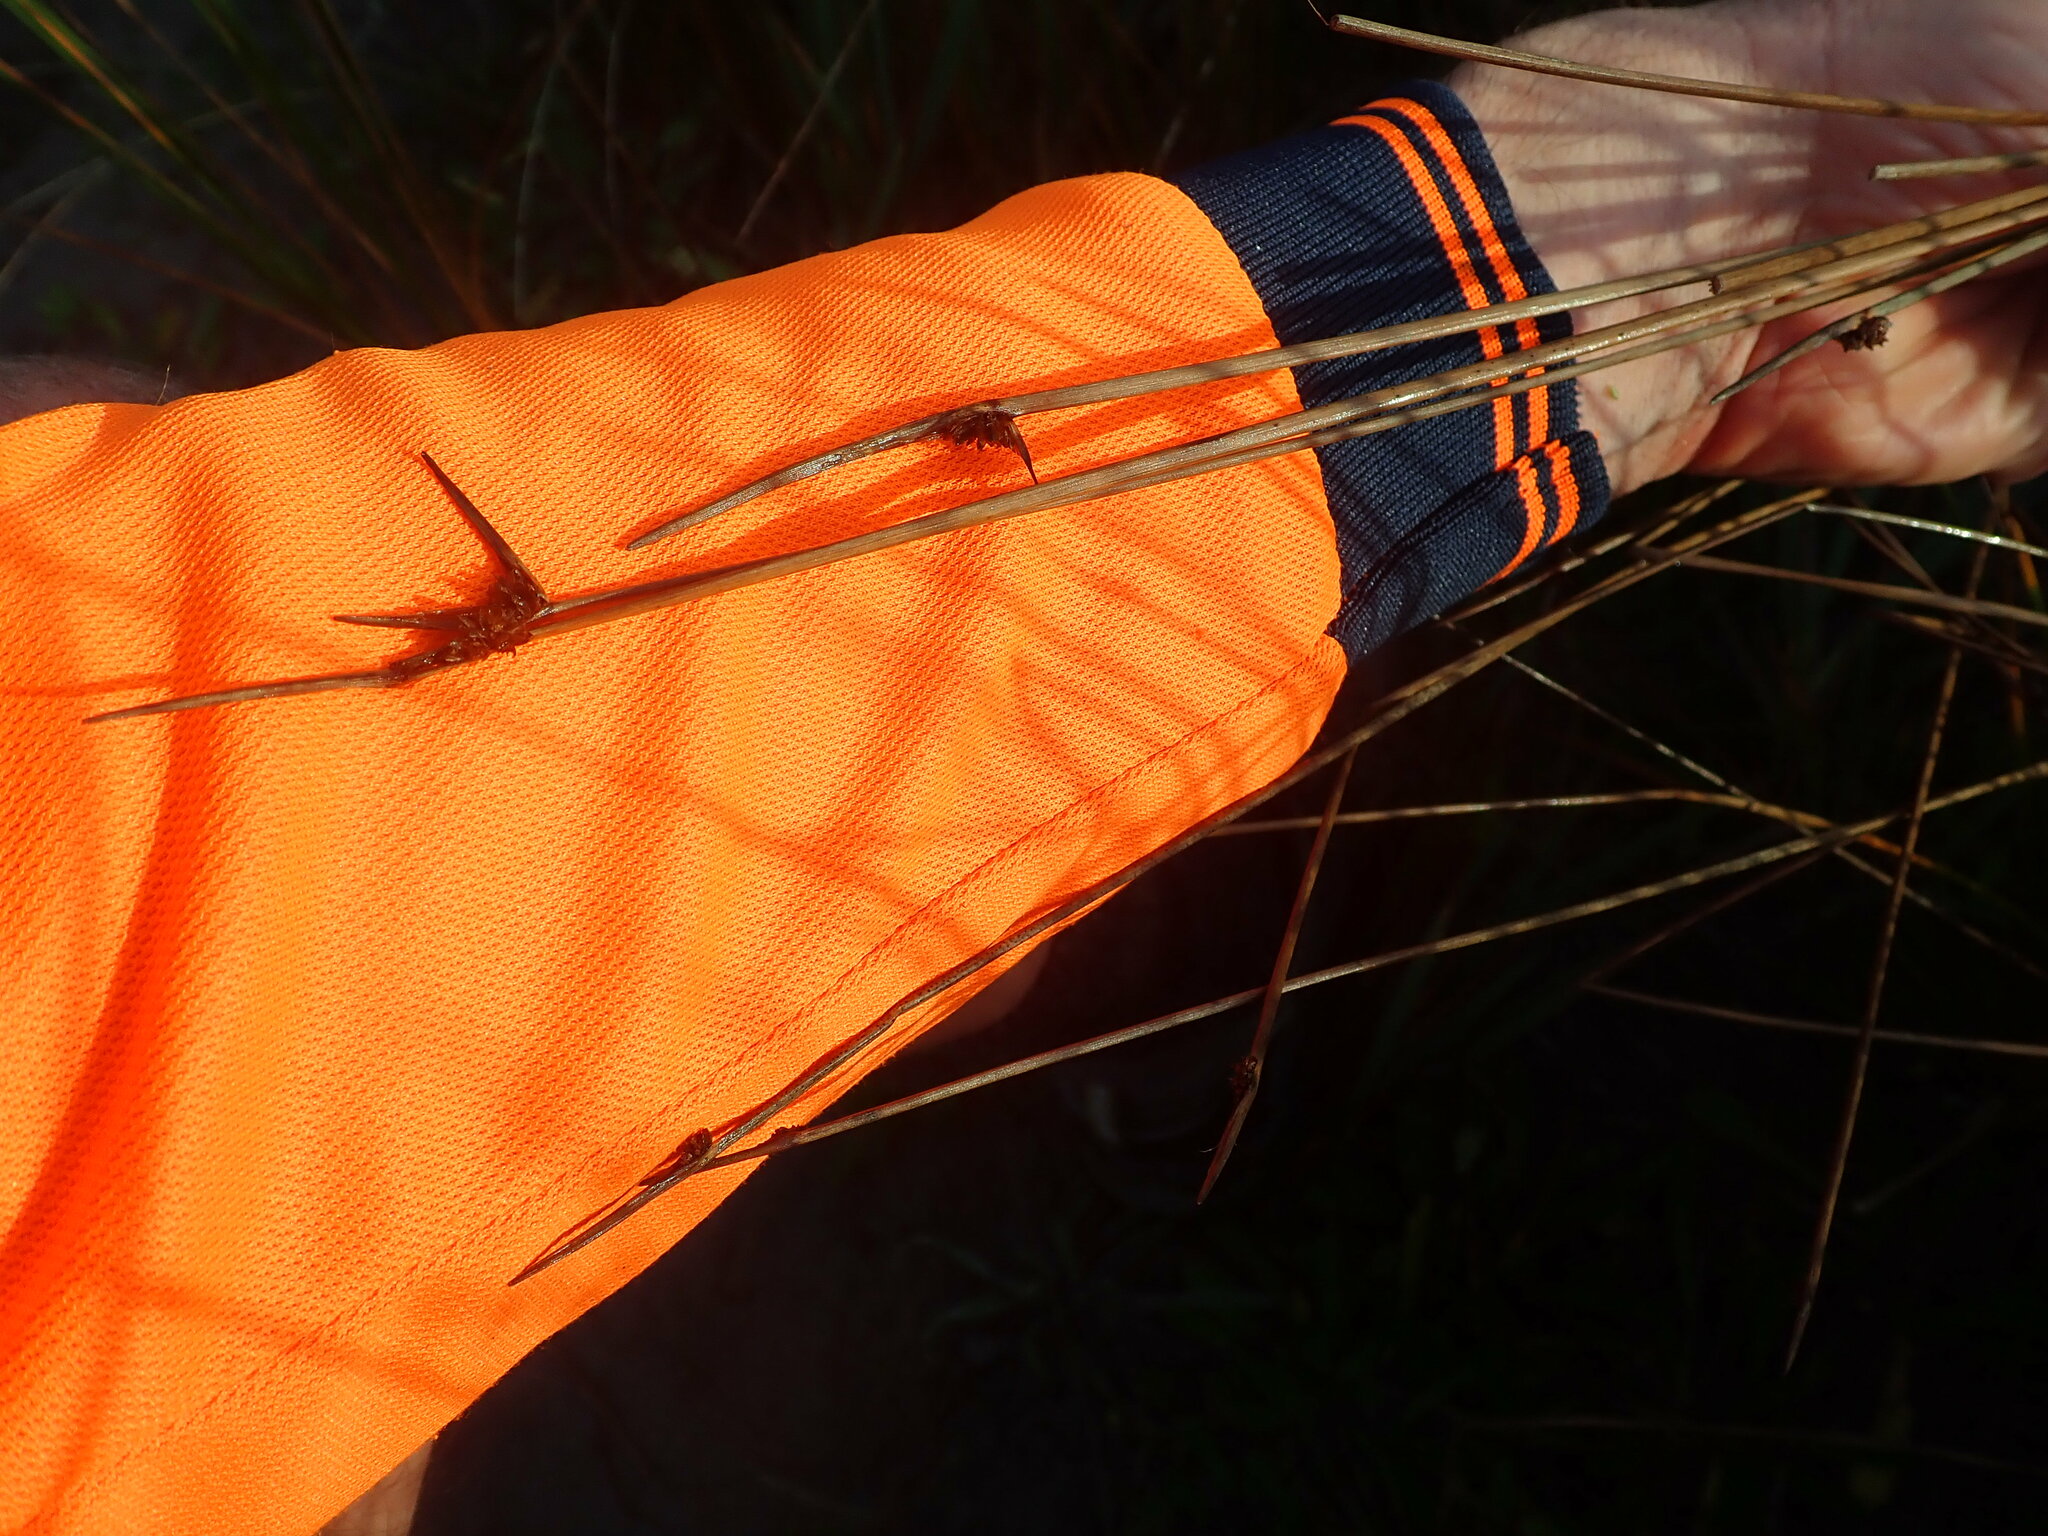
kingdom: Plantae
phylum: Tracheophyta
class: Liliopsida
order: Poales
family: Cyperaceae
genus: Ficinia
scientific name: Ficinia nodosa
